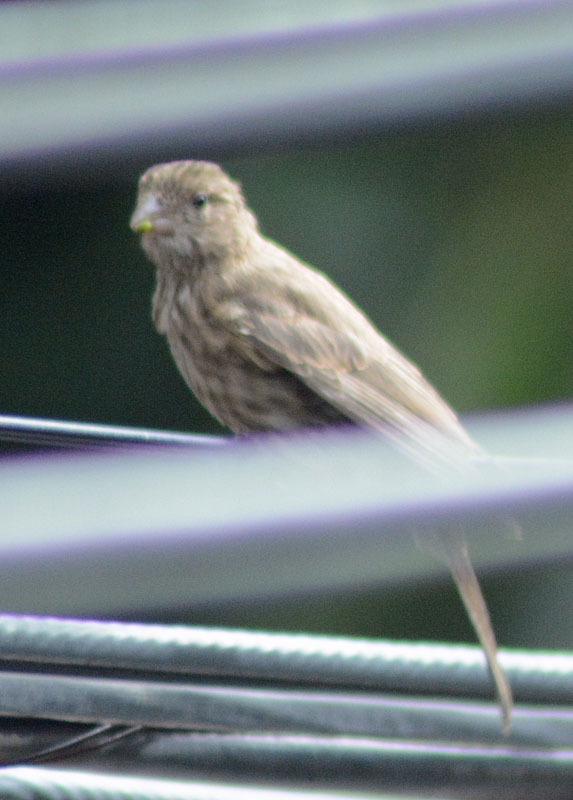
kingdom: Animalia
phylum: Chordata
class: Aves
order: Passeriformes
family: Fringillidae
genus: Haemorhous
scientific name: Haemorhous mexicanus
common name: House finch
